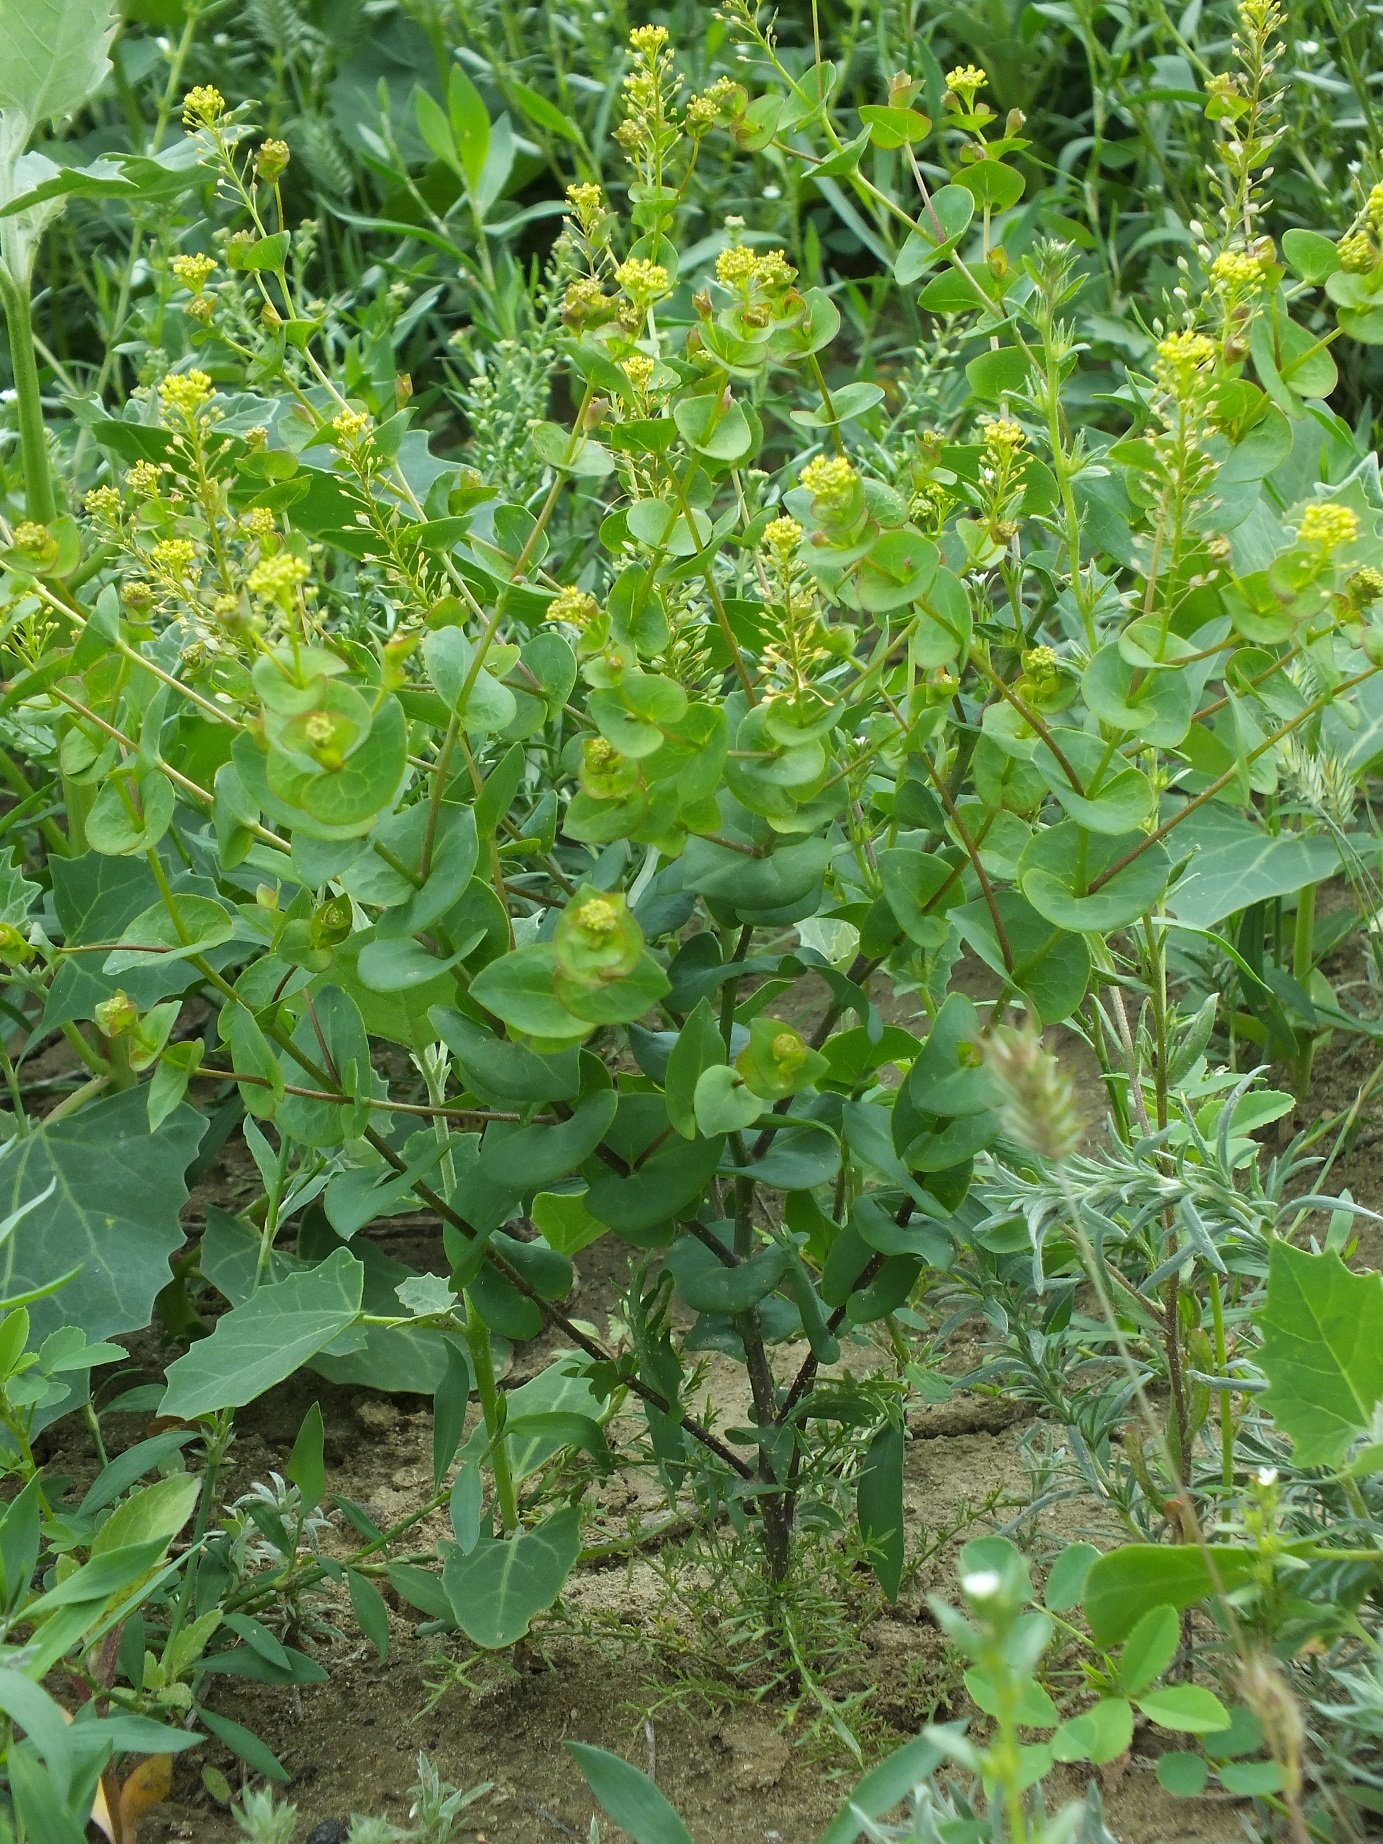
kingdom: Plantae
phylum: Tracheophyta
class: Magnoliopsida
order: Brassicales
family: Brassicaceae
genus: Lepidium
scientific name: Lepidium perfoliatum
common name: Perfoliate pepperwort
